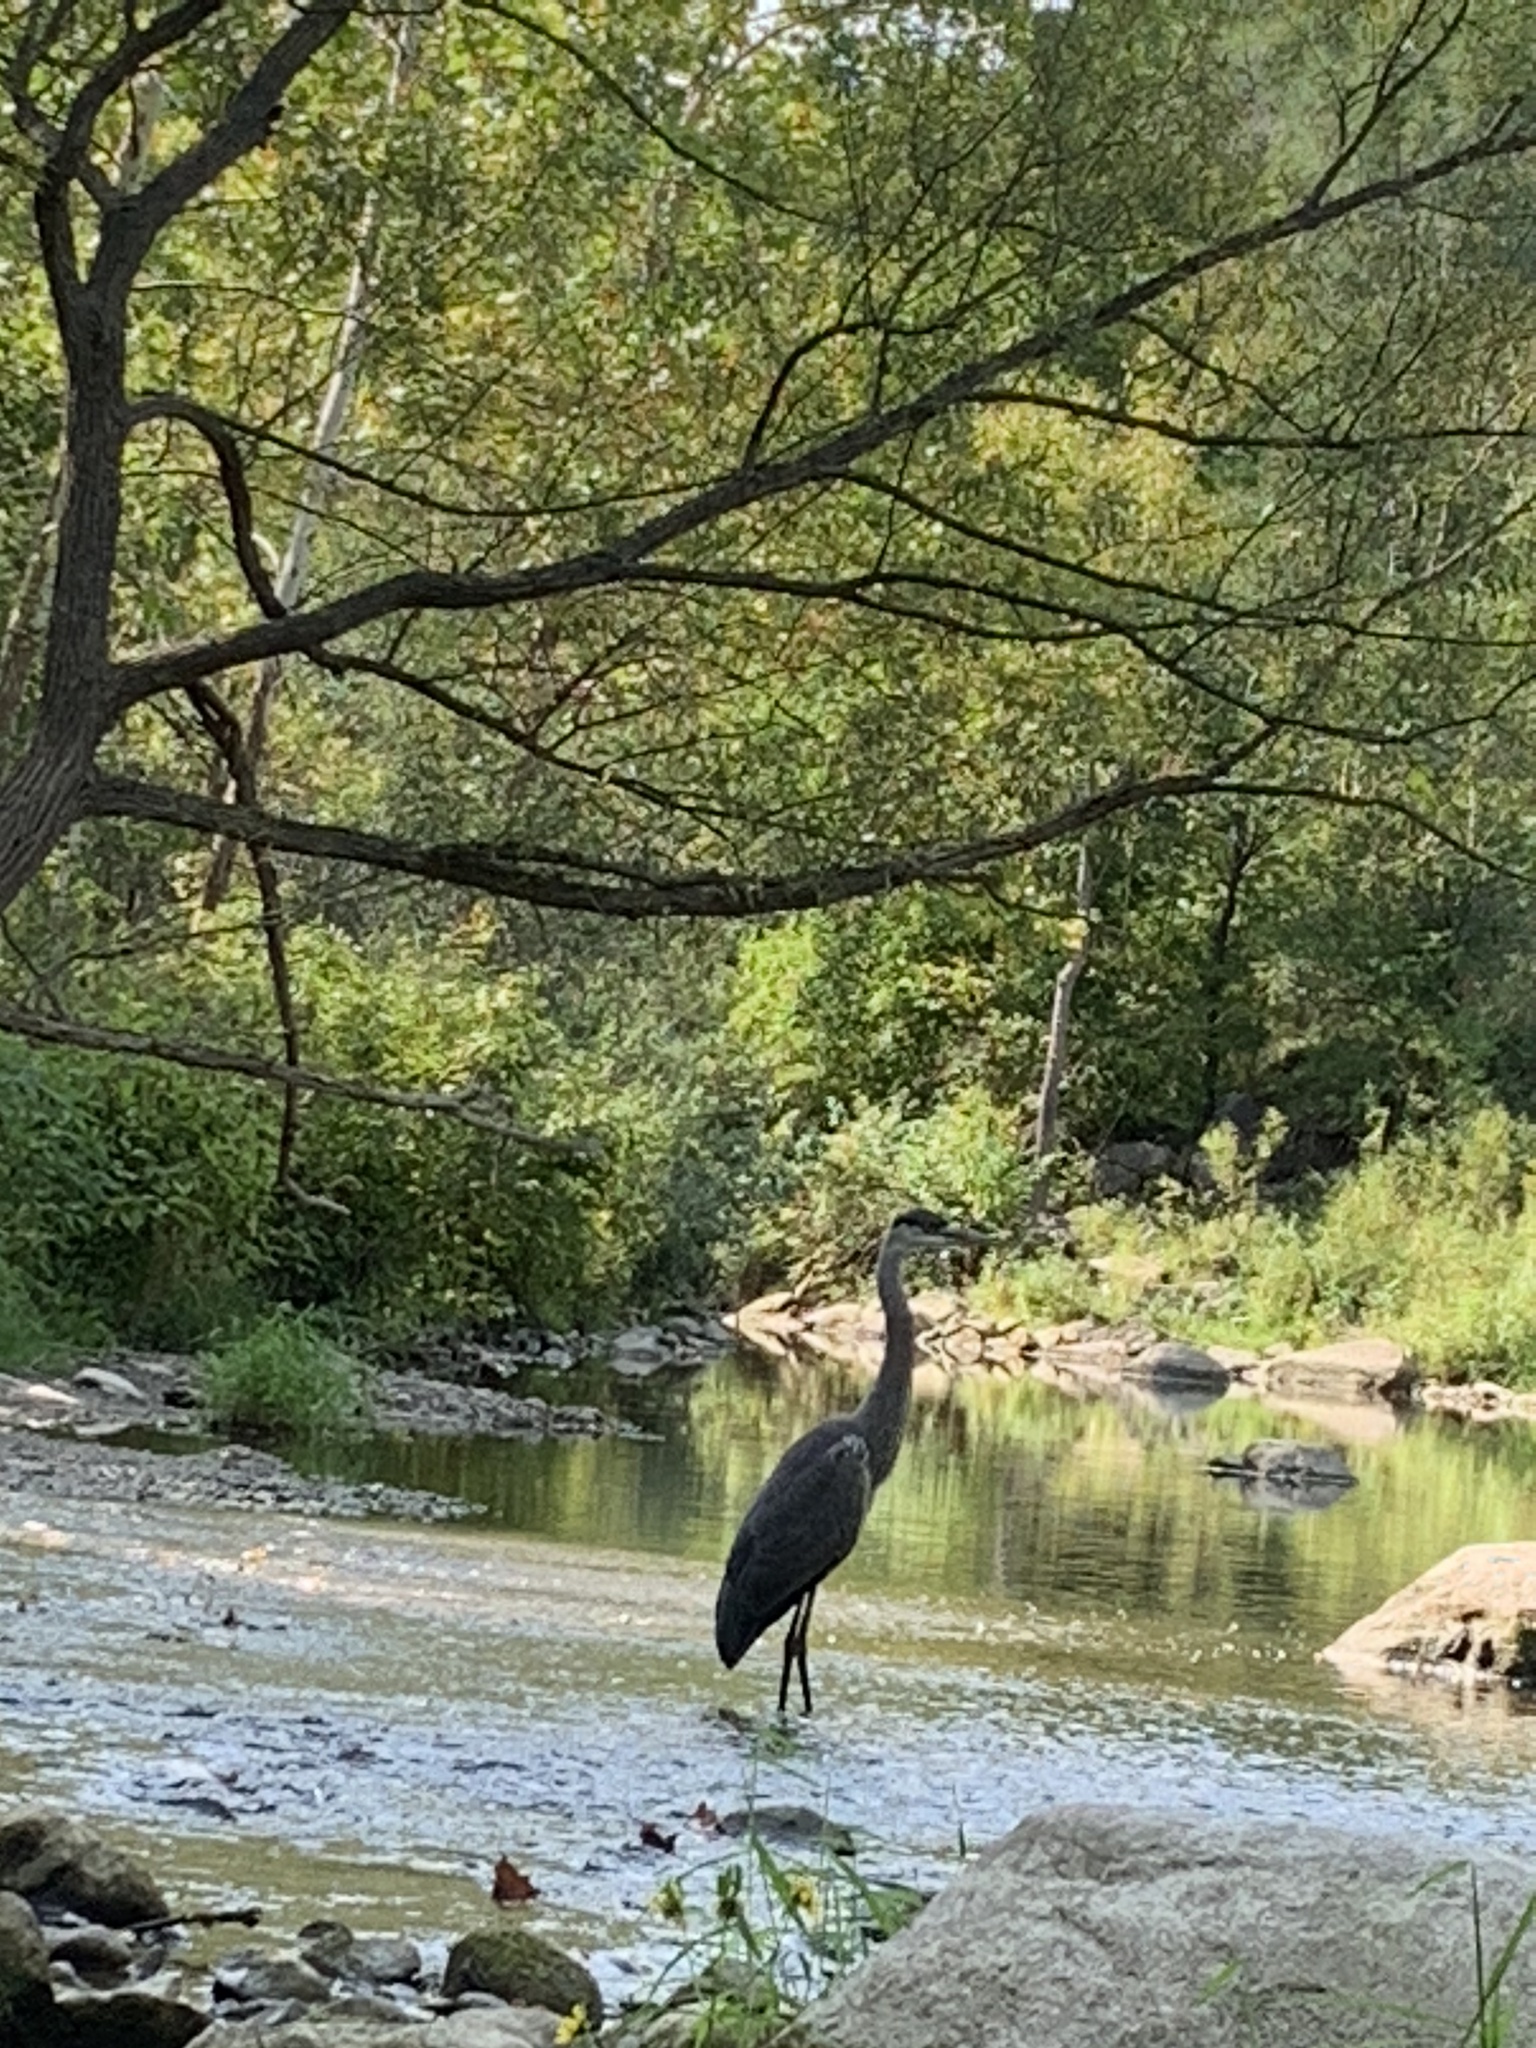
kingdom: Animalia
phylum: Chordata
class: Aves
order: Pelecaniformes
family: Ardeidae
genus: Ardea
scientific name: Ardea herodias
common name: Great blue heron
